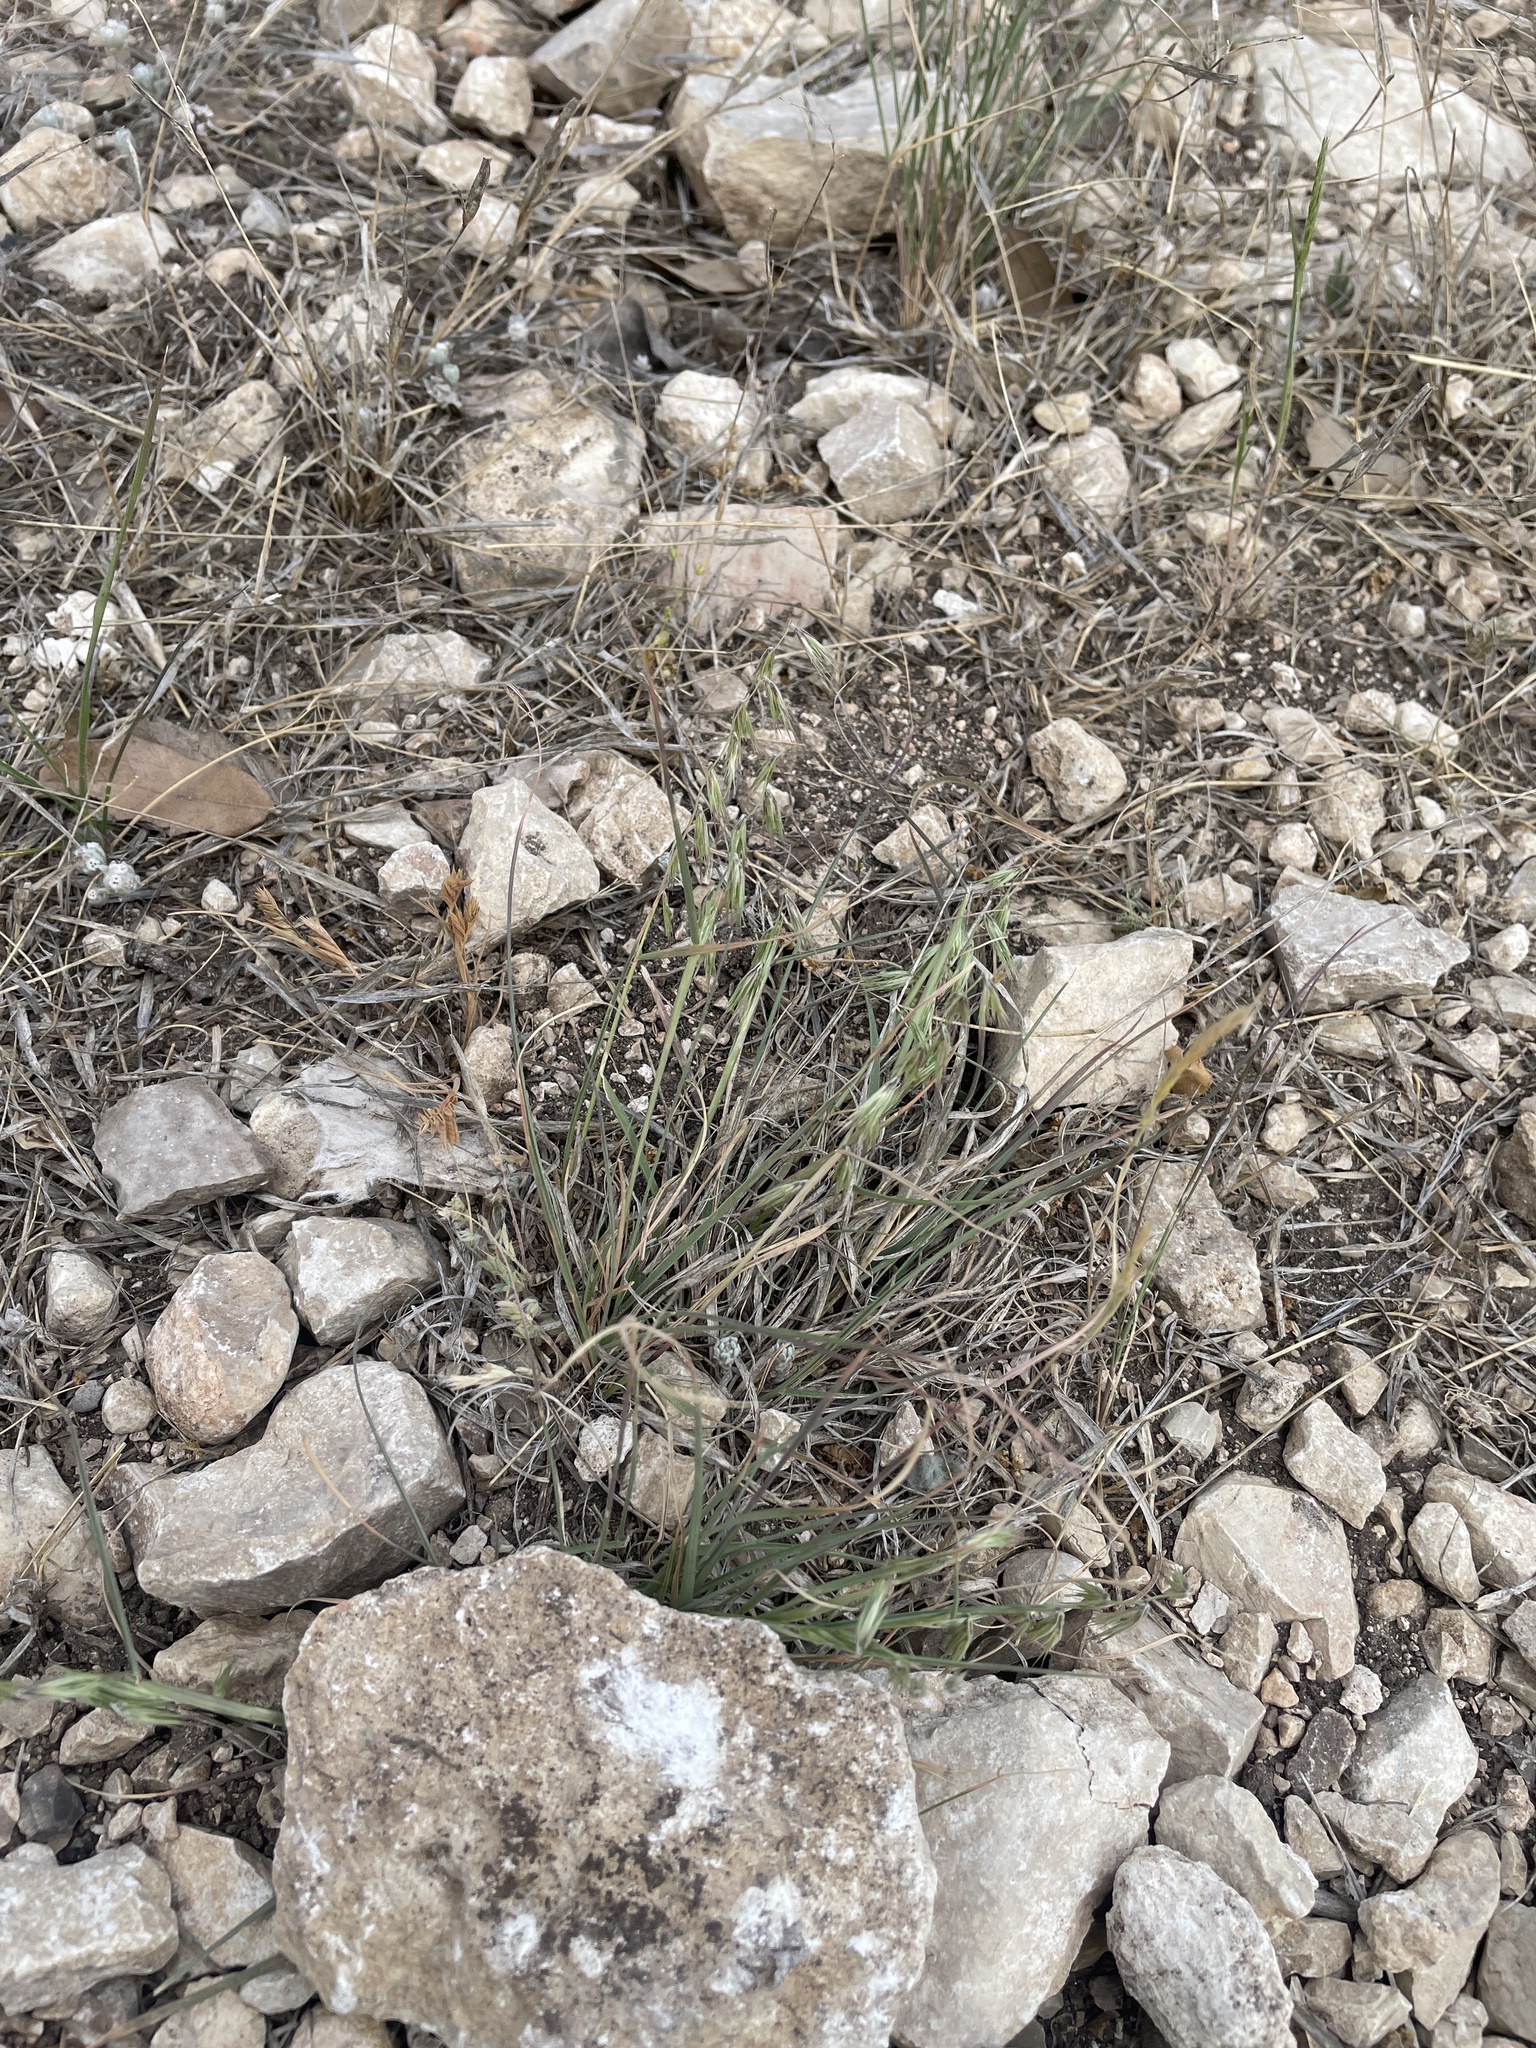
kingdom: Plantae
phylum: Tracheophyta
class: Liliopsida
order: Poales
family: Poaceae
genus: Bouteloua
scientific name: Bouteloua rigidiseta
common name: Texas grama
